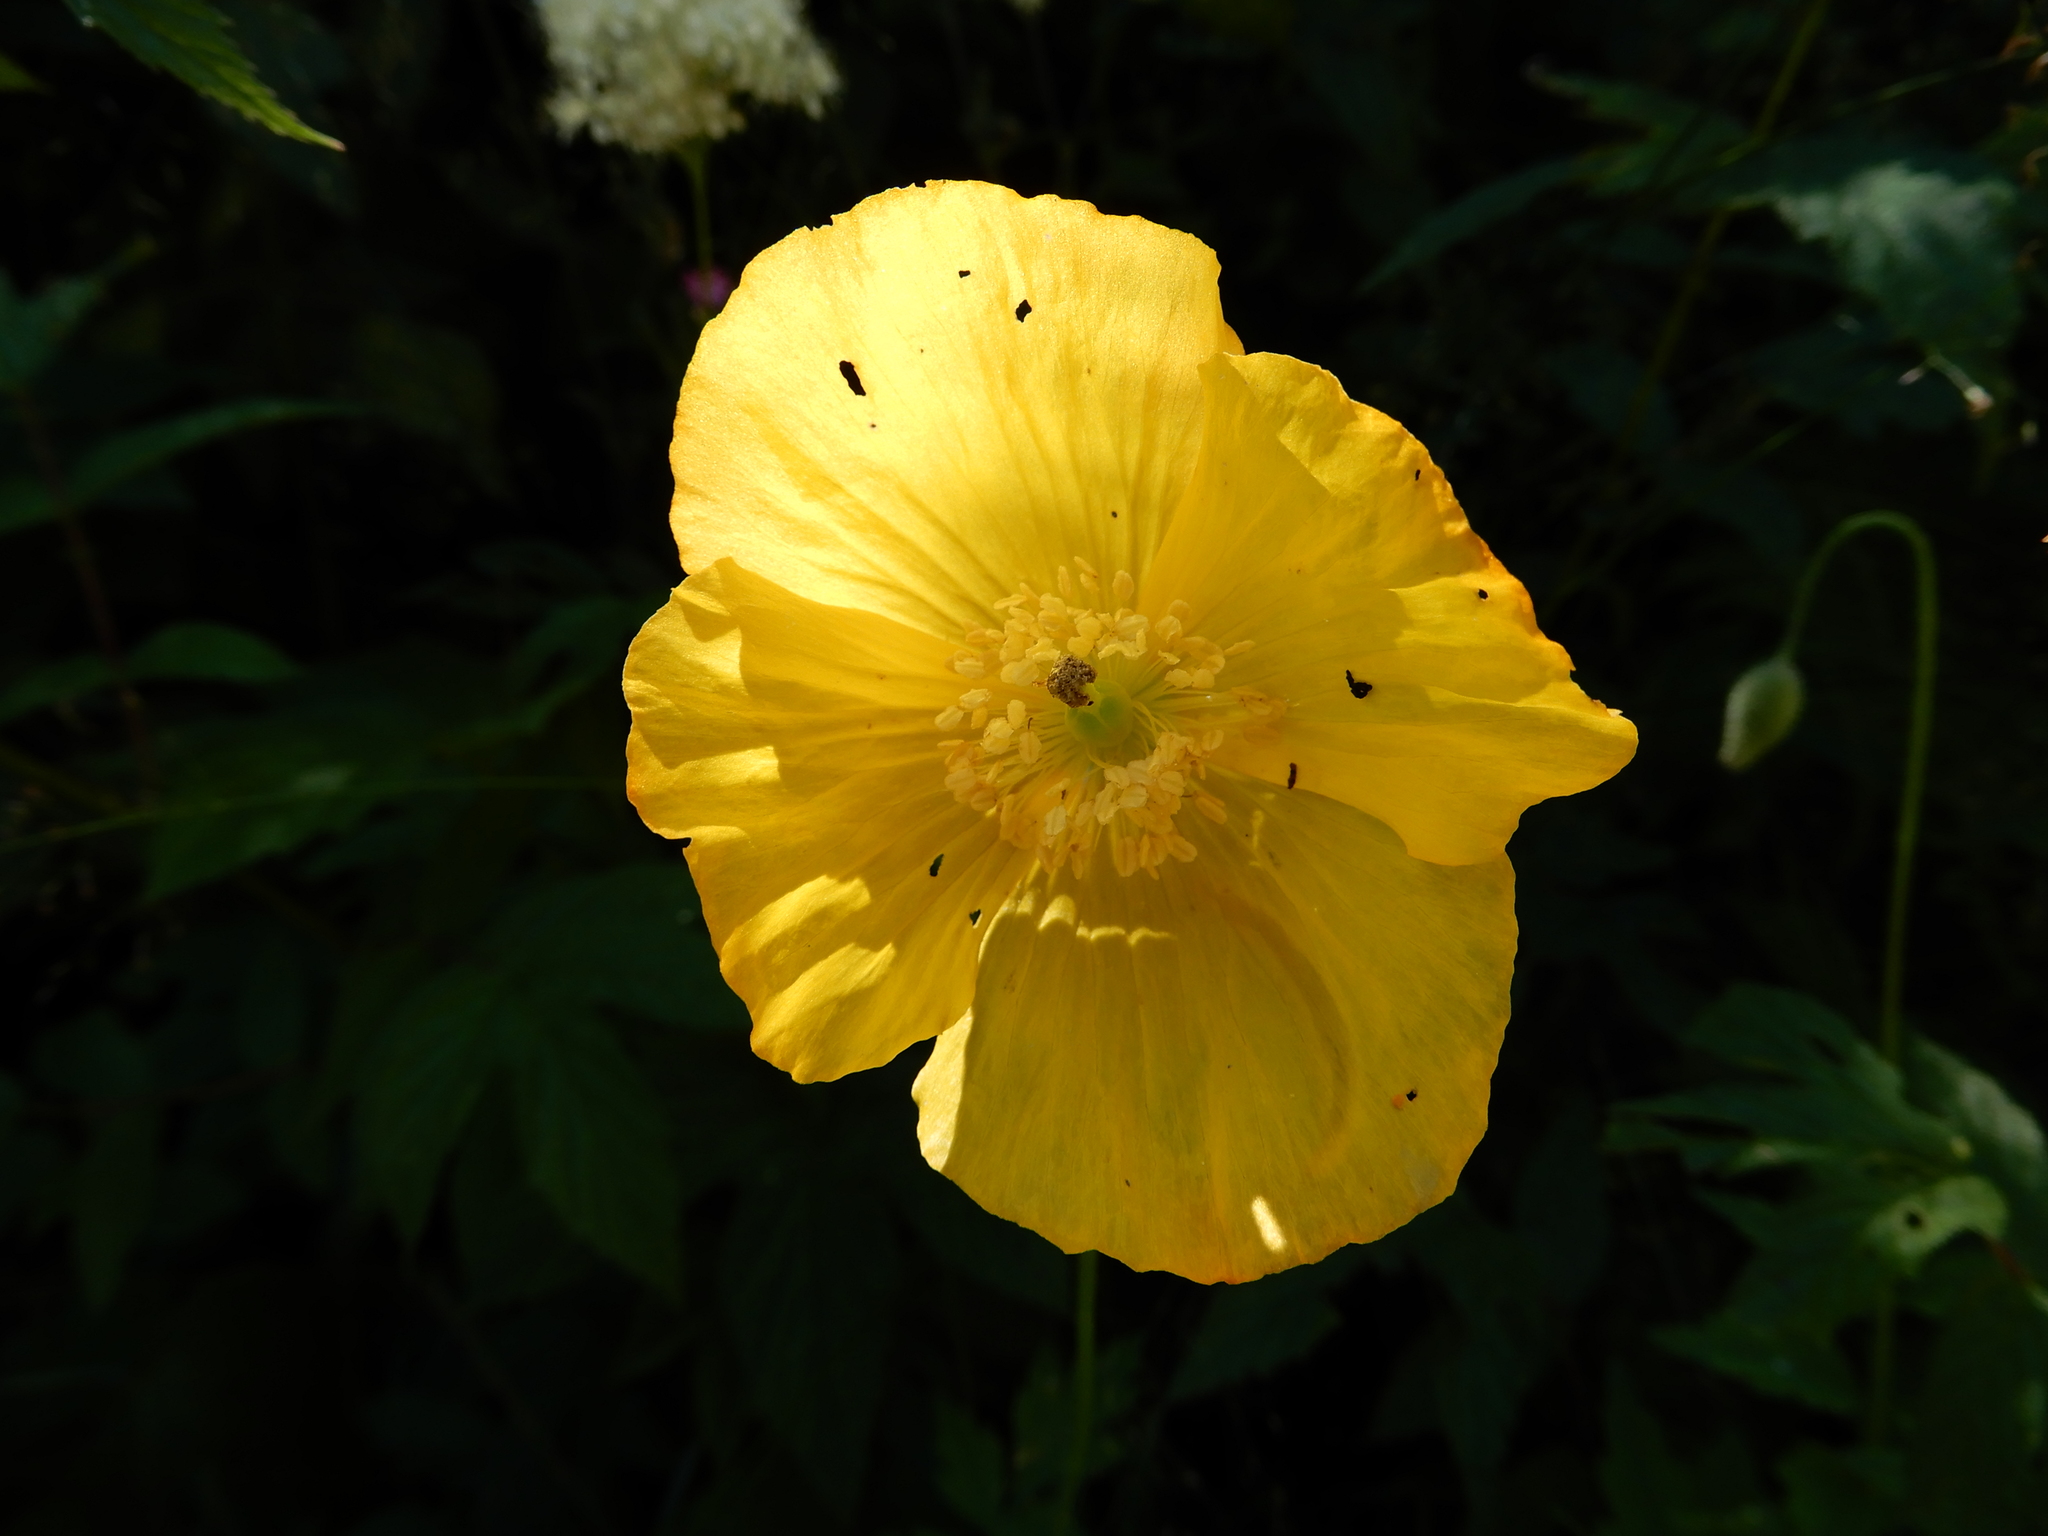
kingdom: Plantae
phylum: Tracheophyta
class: Magnoliopsida
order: Ranunculales
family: Papaveraceae
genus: Papaver
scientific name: Papaver cambricum
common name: Poppy
